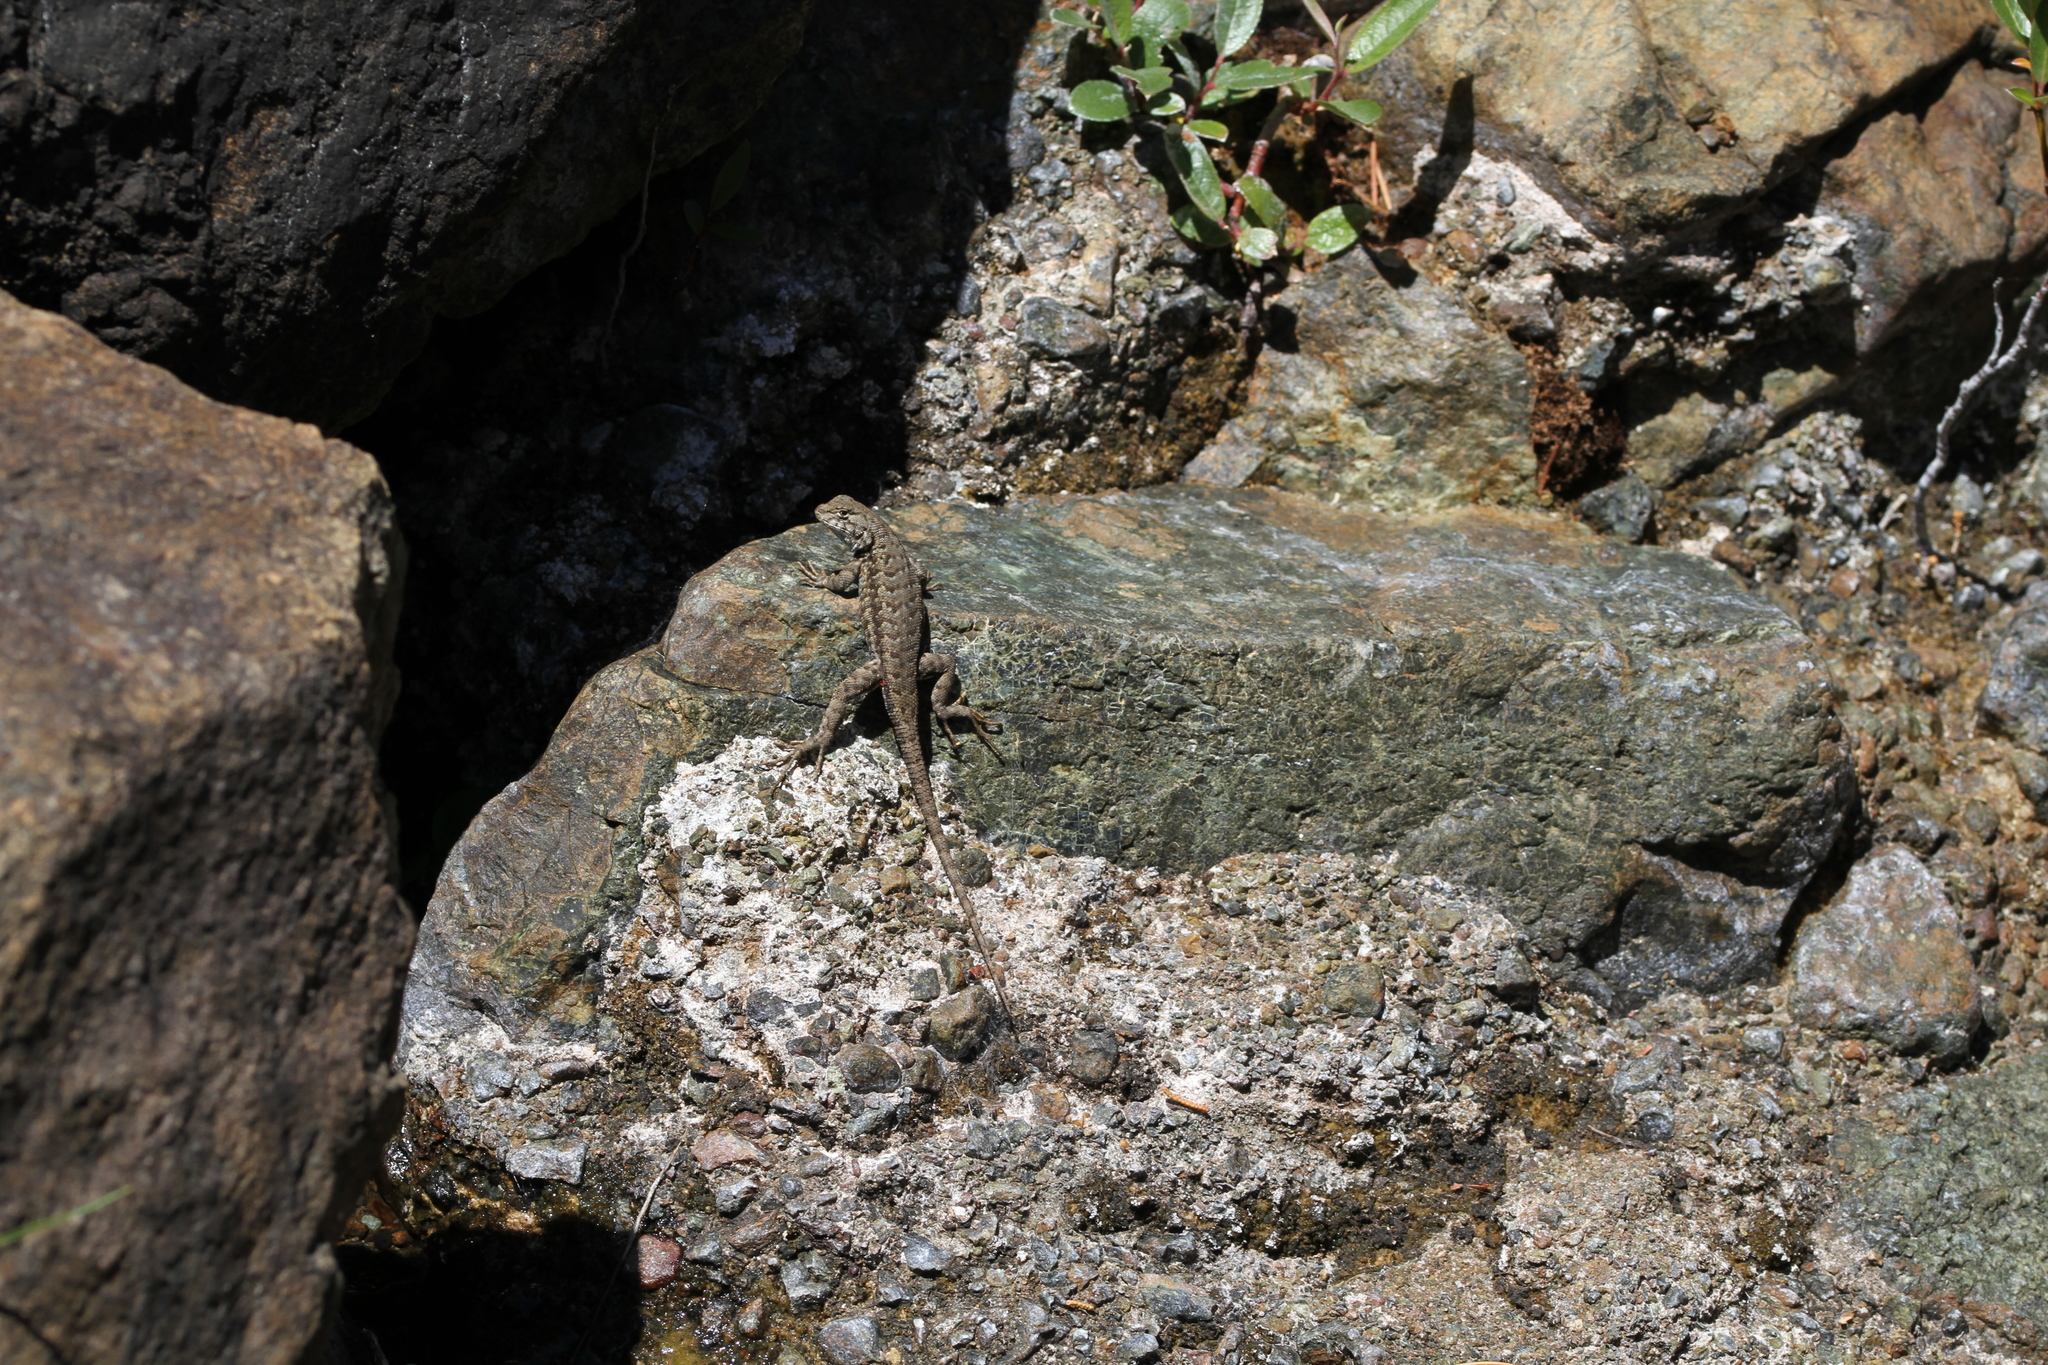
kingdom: Animalia
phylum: Chordata
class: Squamata
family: Phrynosomatidae
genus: Sceloporus
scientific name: Sceloporus graciosus
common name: Sagebrush lizard
